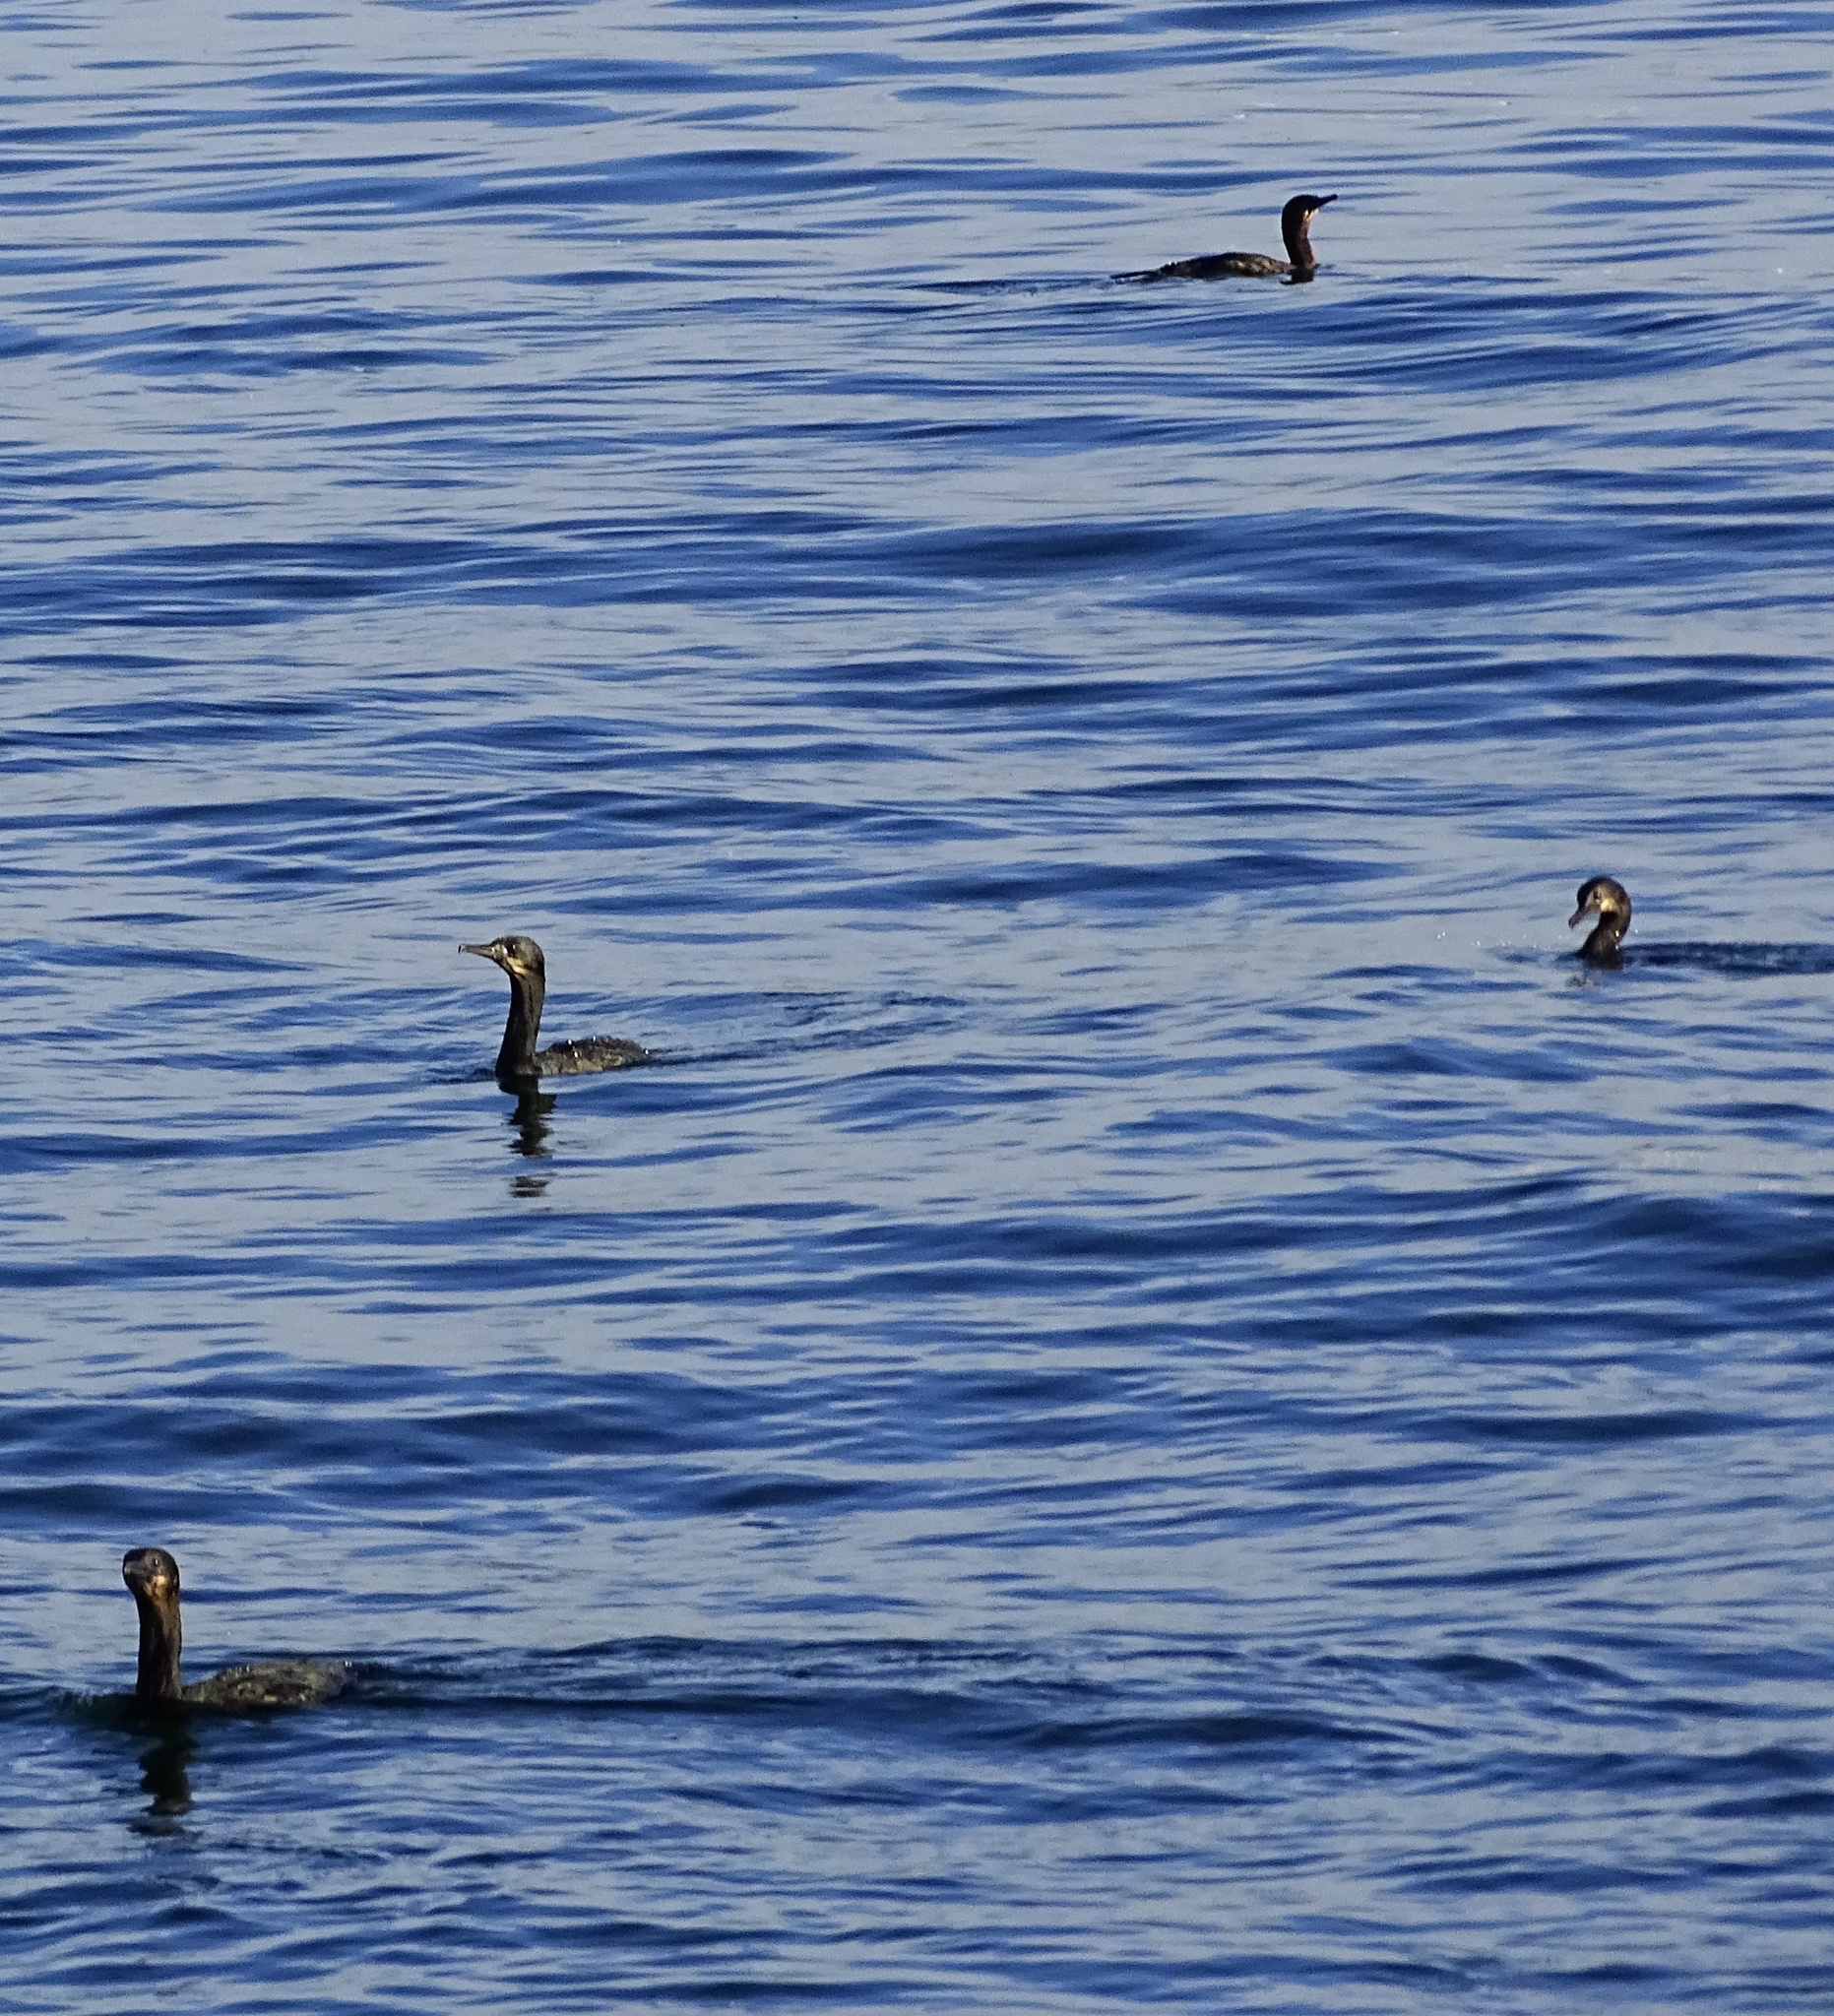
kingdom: Animalia
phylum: Chordata
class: Aves
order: Suliformes
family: Phalacrocoracidae
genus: Urile
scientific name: Urile penicillatus
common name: Brandt's cormorant
